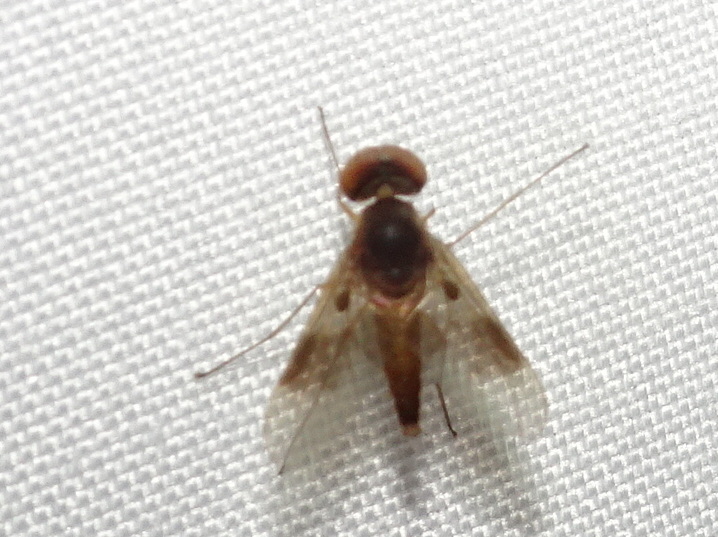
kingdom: Animalia
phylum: Arthropoda
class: Insecta
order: Diptera
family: Rhagionidae
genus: Chrysopilus
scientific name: Chrysopilus quadratus
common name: Quadrate snipe fly
